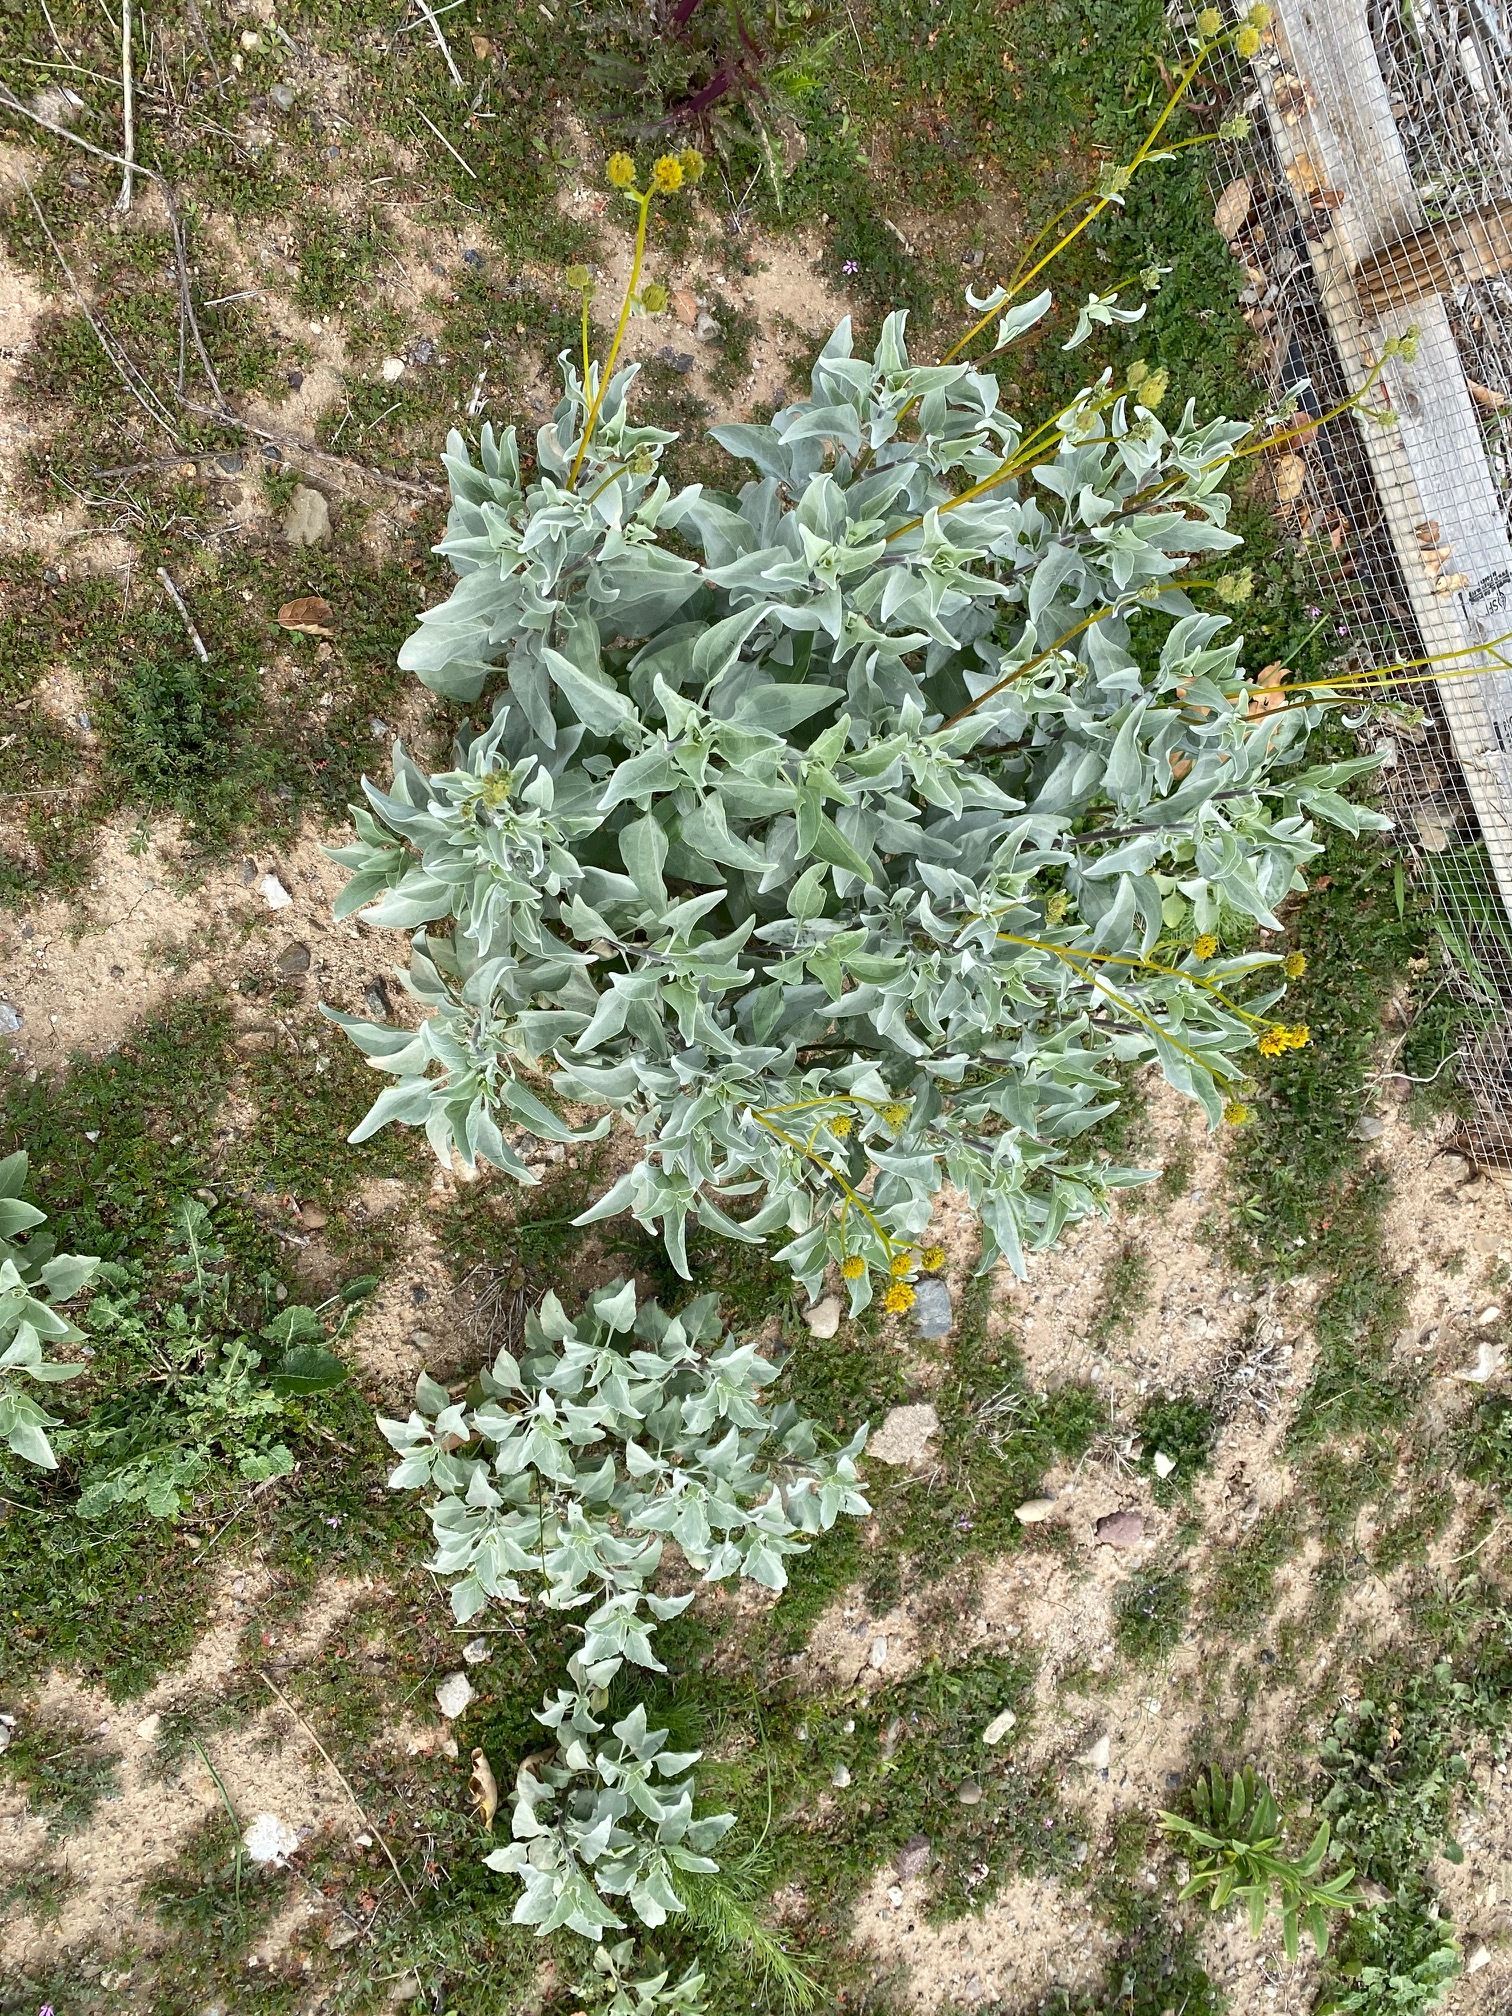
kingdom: Plantae
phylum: Tracheophyta
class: Magnoliopsida
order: Asterales
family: Asteraceae
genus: Encelia
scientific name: Encelia farinosa
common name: Brittlebush
